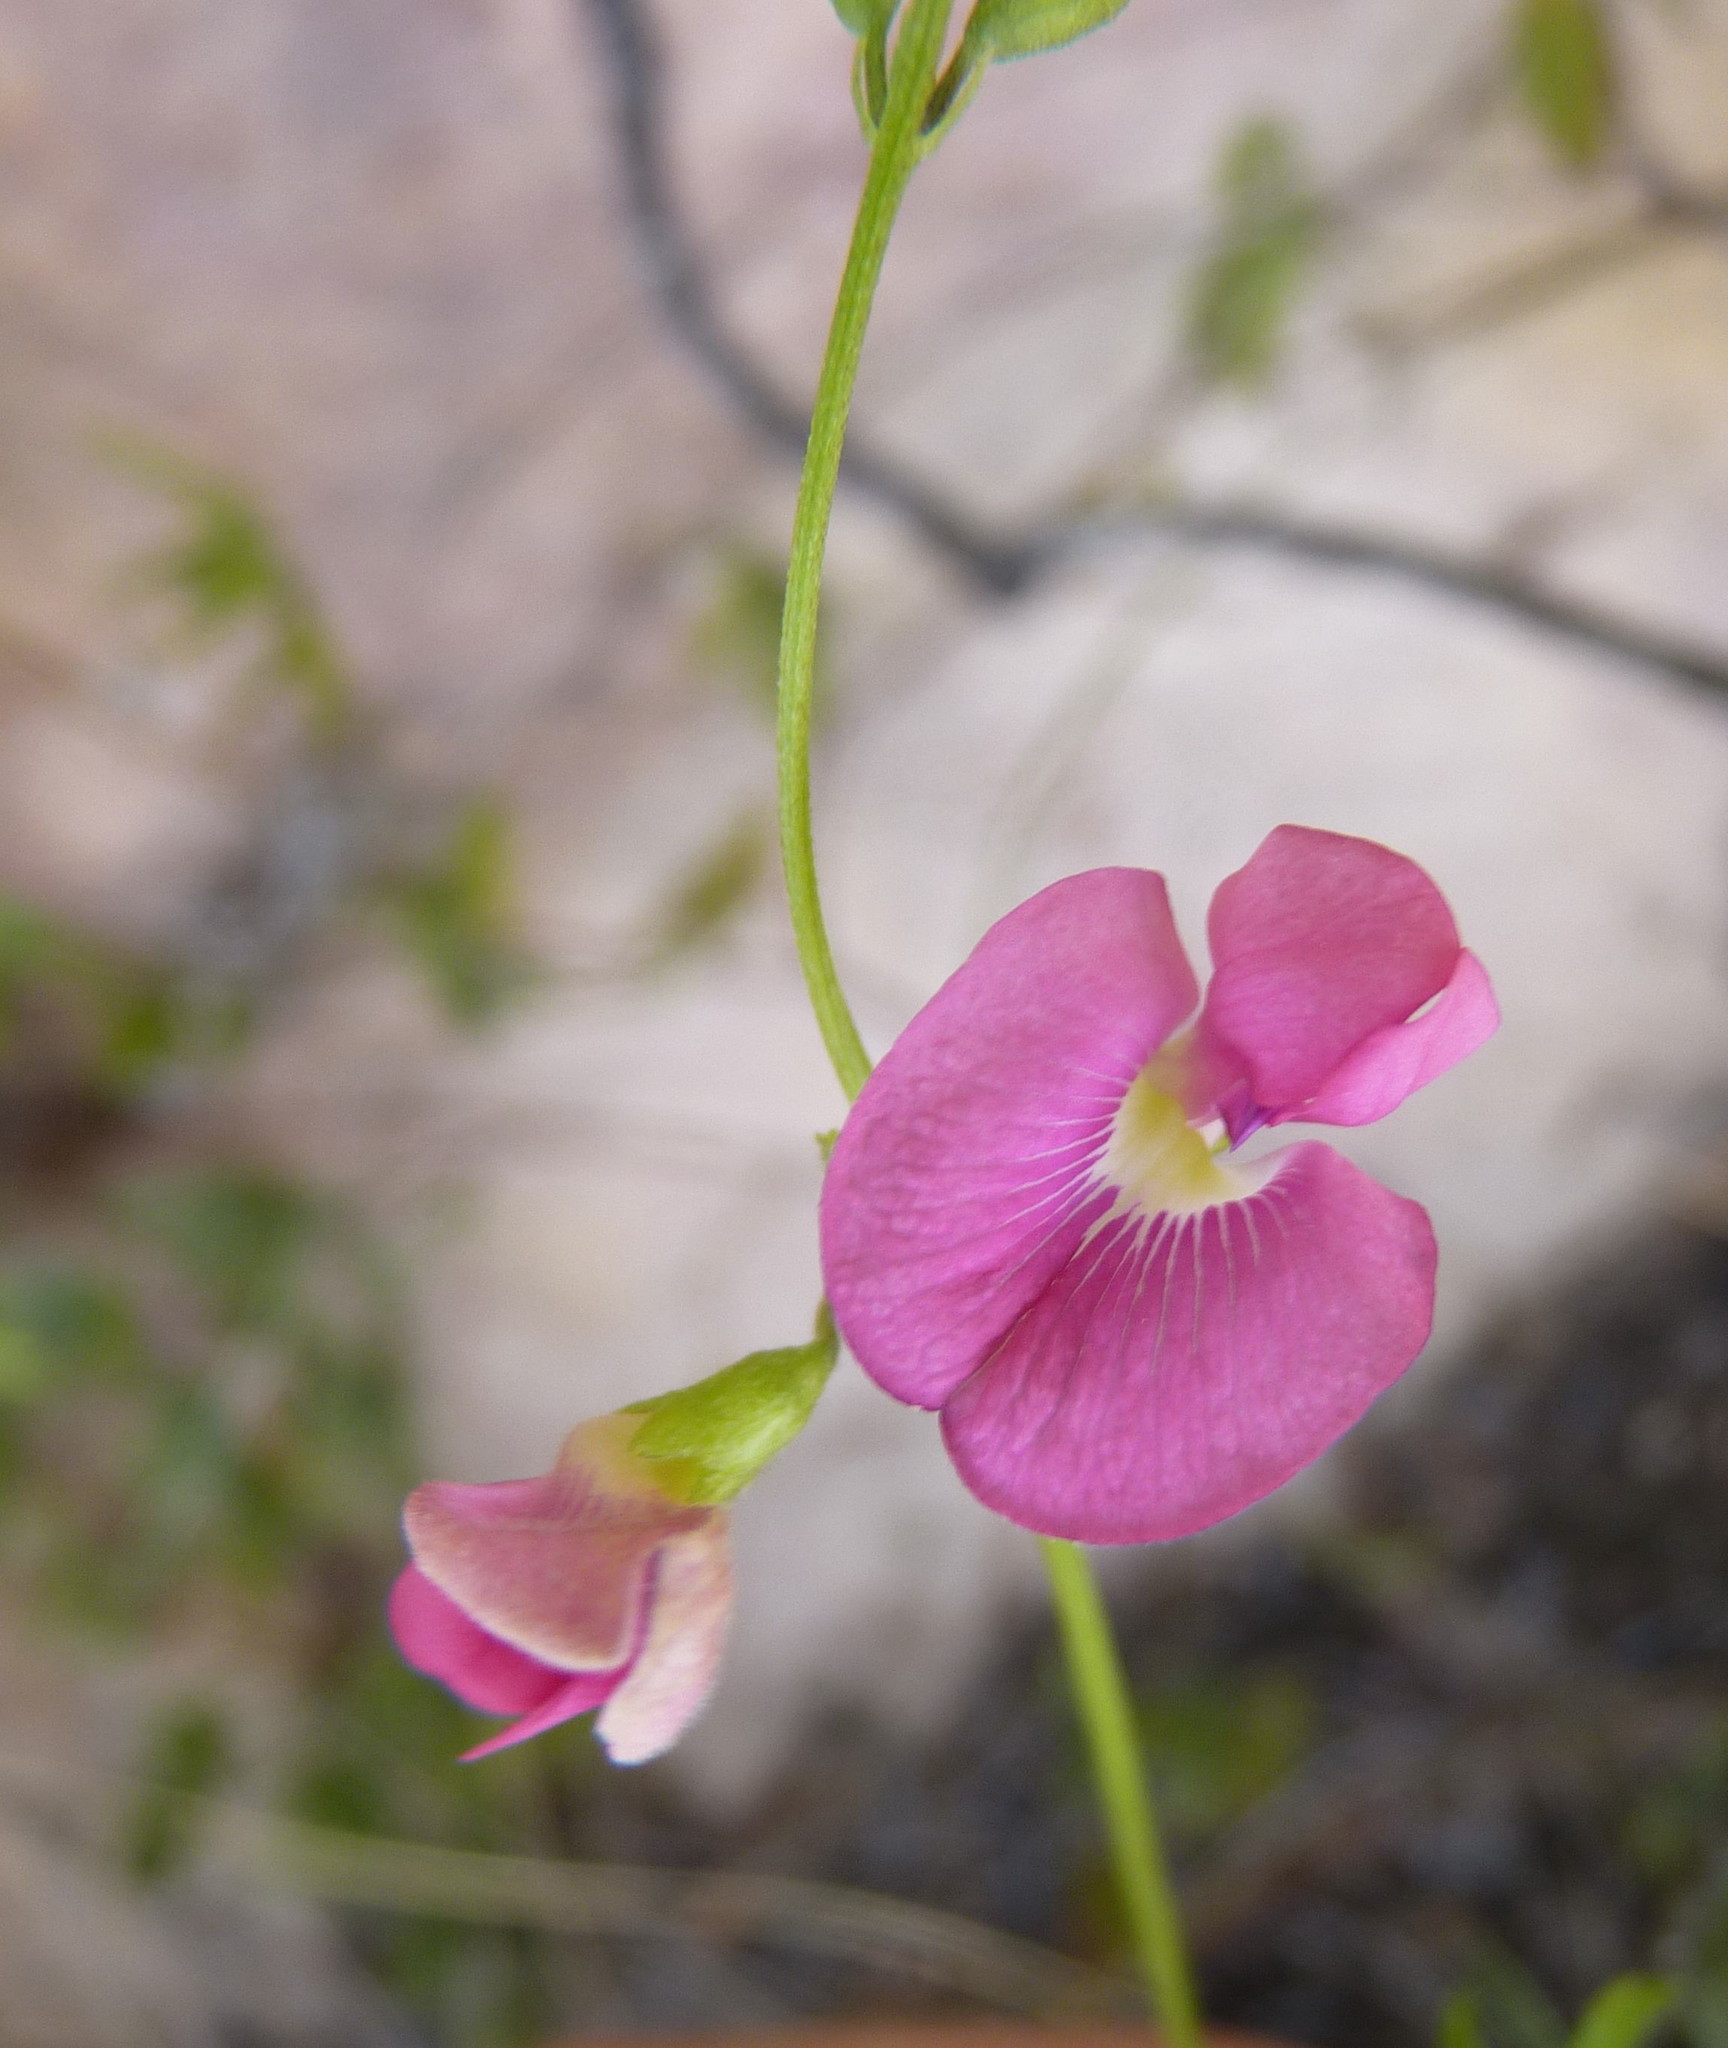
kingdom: Plantae
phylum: Tracheophyta
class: Magnoliopsida
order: Fabales
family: Fabaceae
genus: Tephrosia
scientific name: Tephrosia capensis
